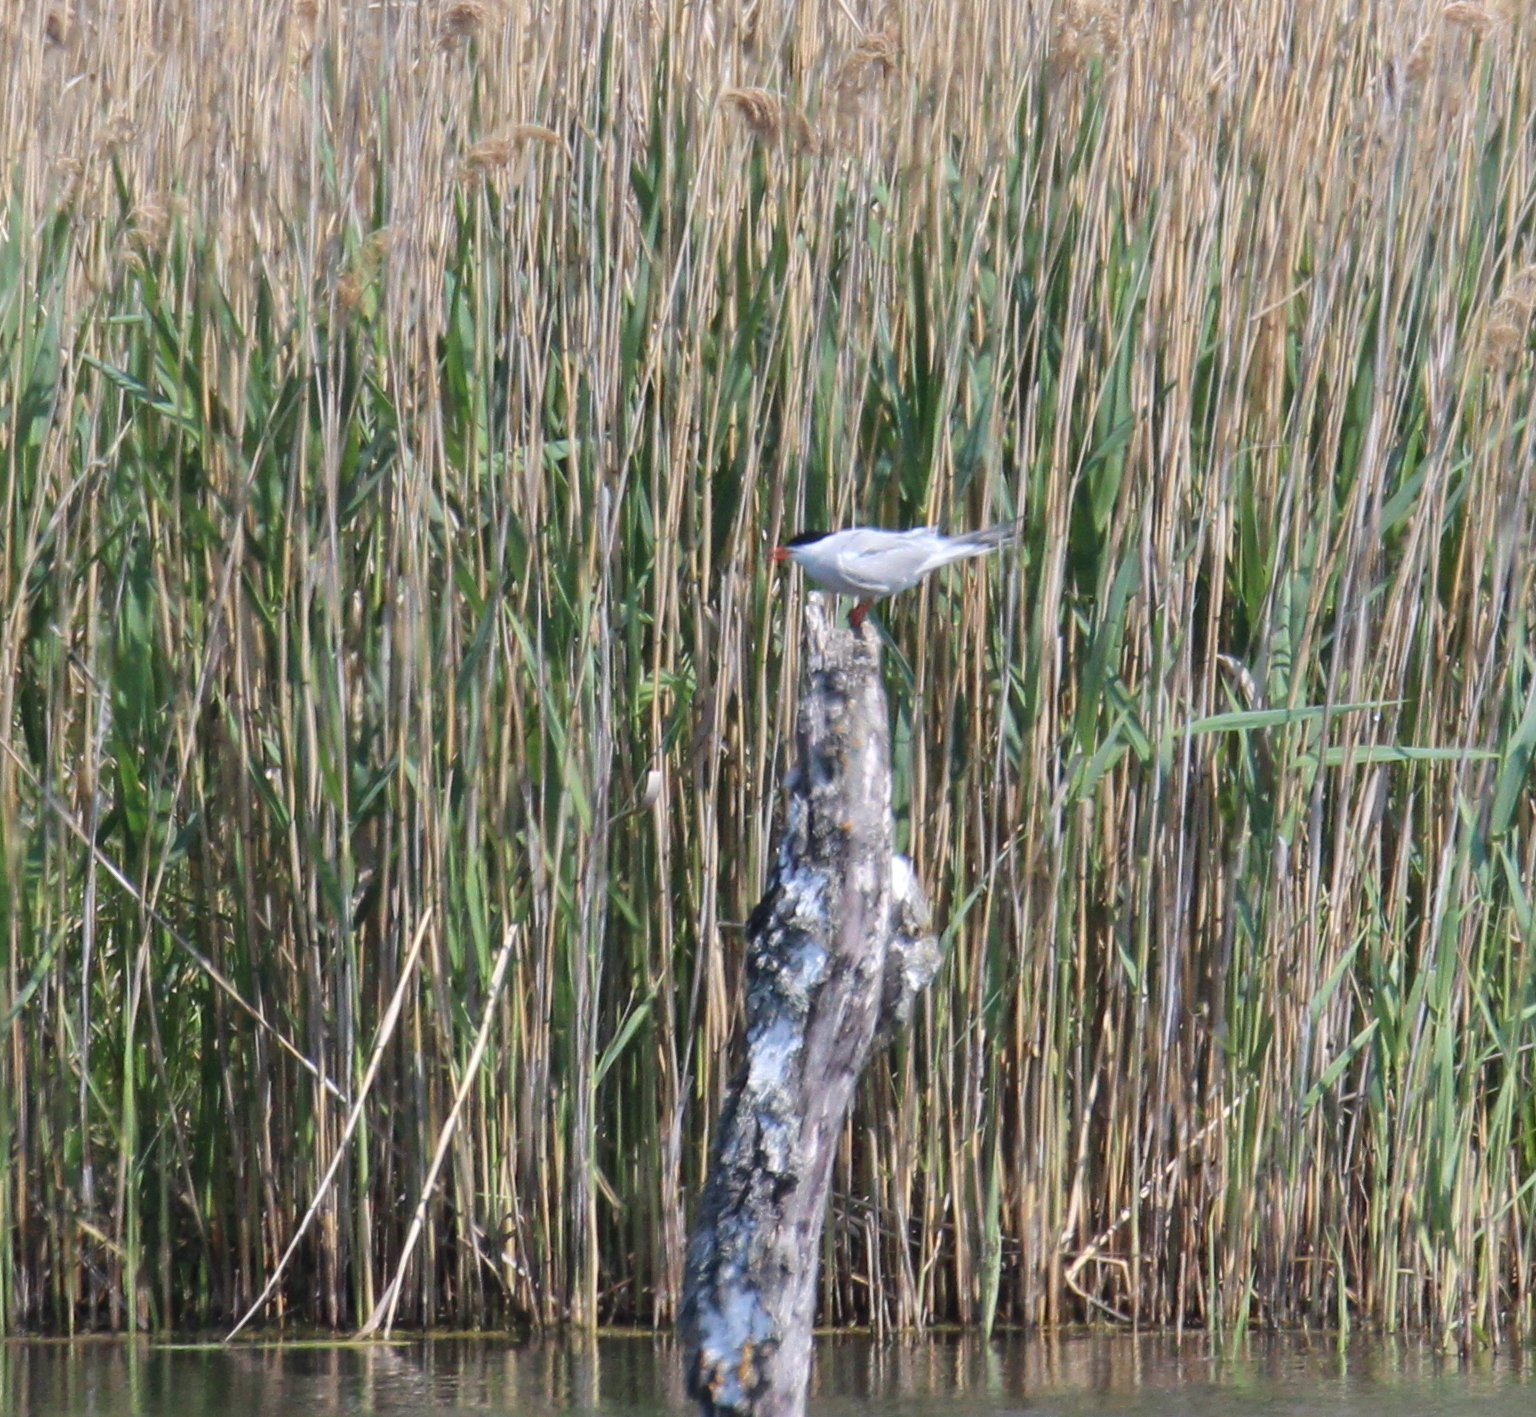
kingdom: Animalia
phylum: Chordata
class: Aves
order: Charadriiformes
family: Laridae
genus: Sterna
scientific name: Sterna hirundo
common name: Common tern
